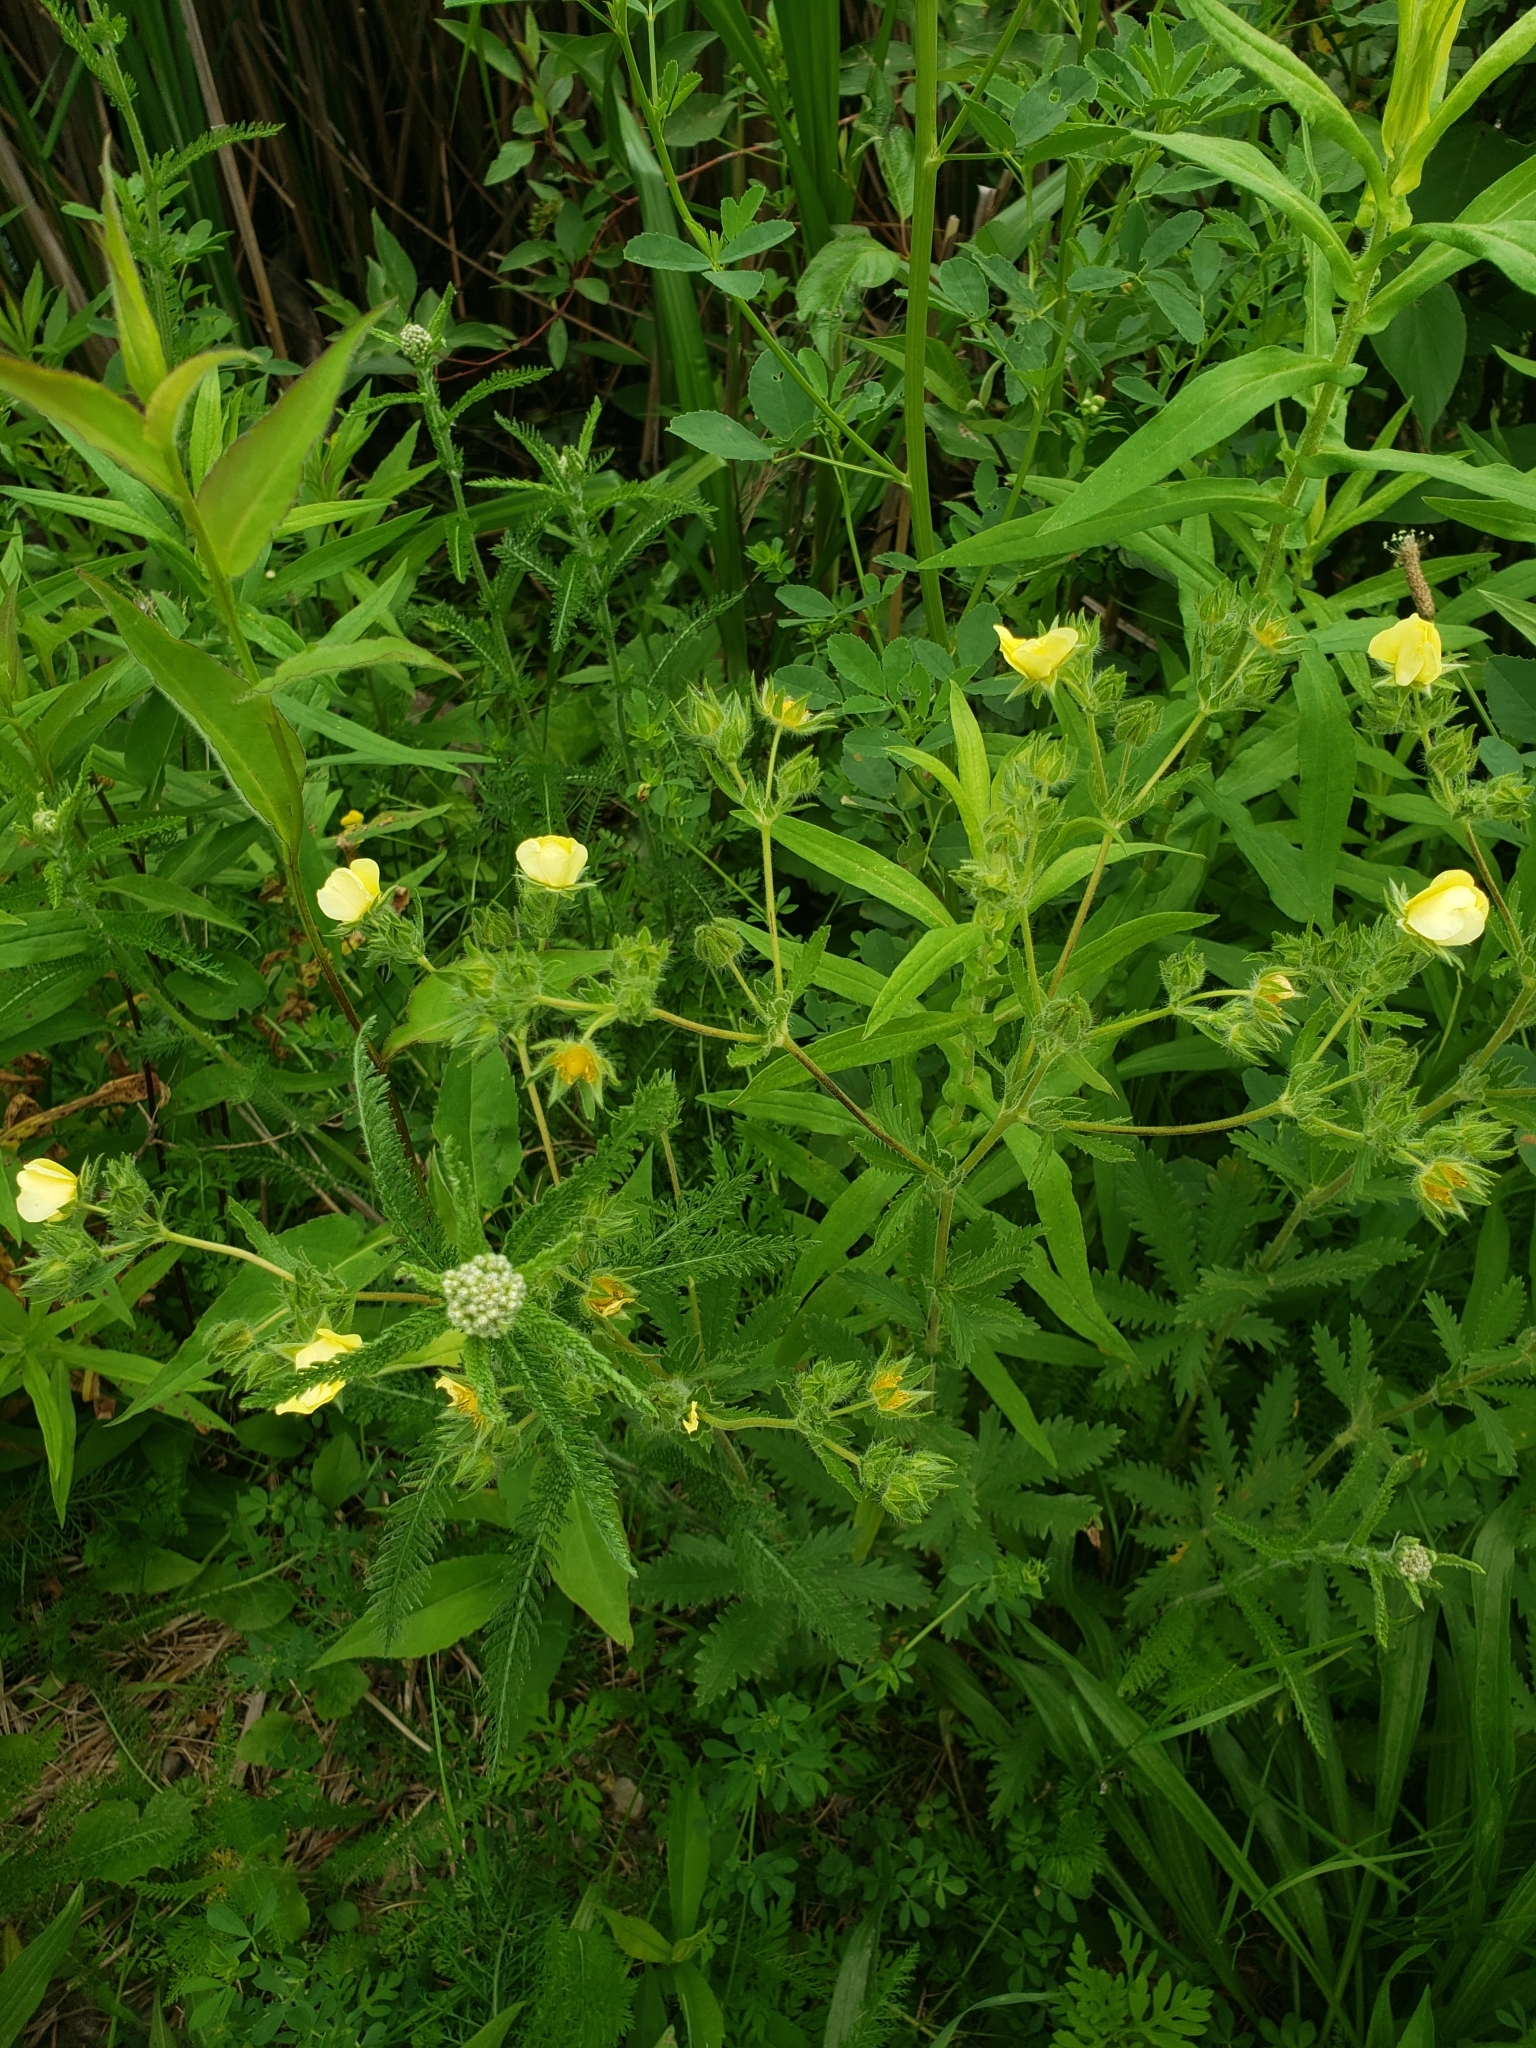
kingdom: Plantae
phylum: Tracheophyta
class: Magnoliopsida
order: Rosales
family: Rosaceae
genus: Potentilla
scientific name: Potentilla recta
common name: Sulphur cinquefoil
